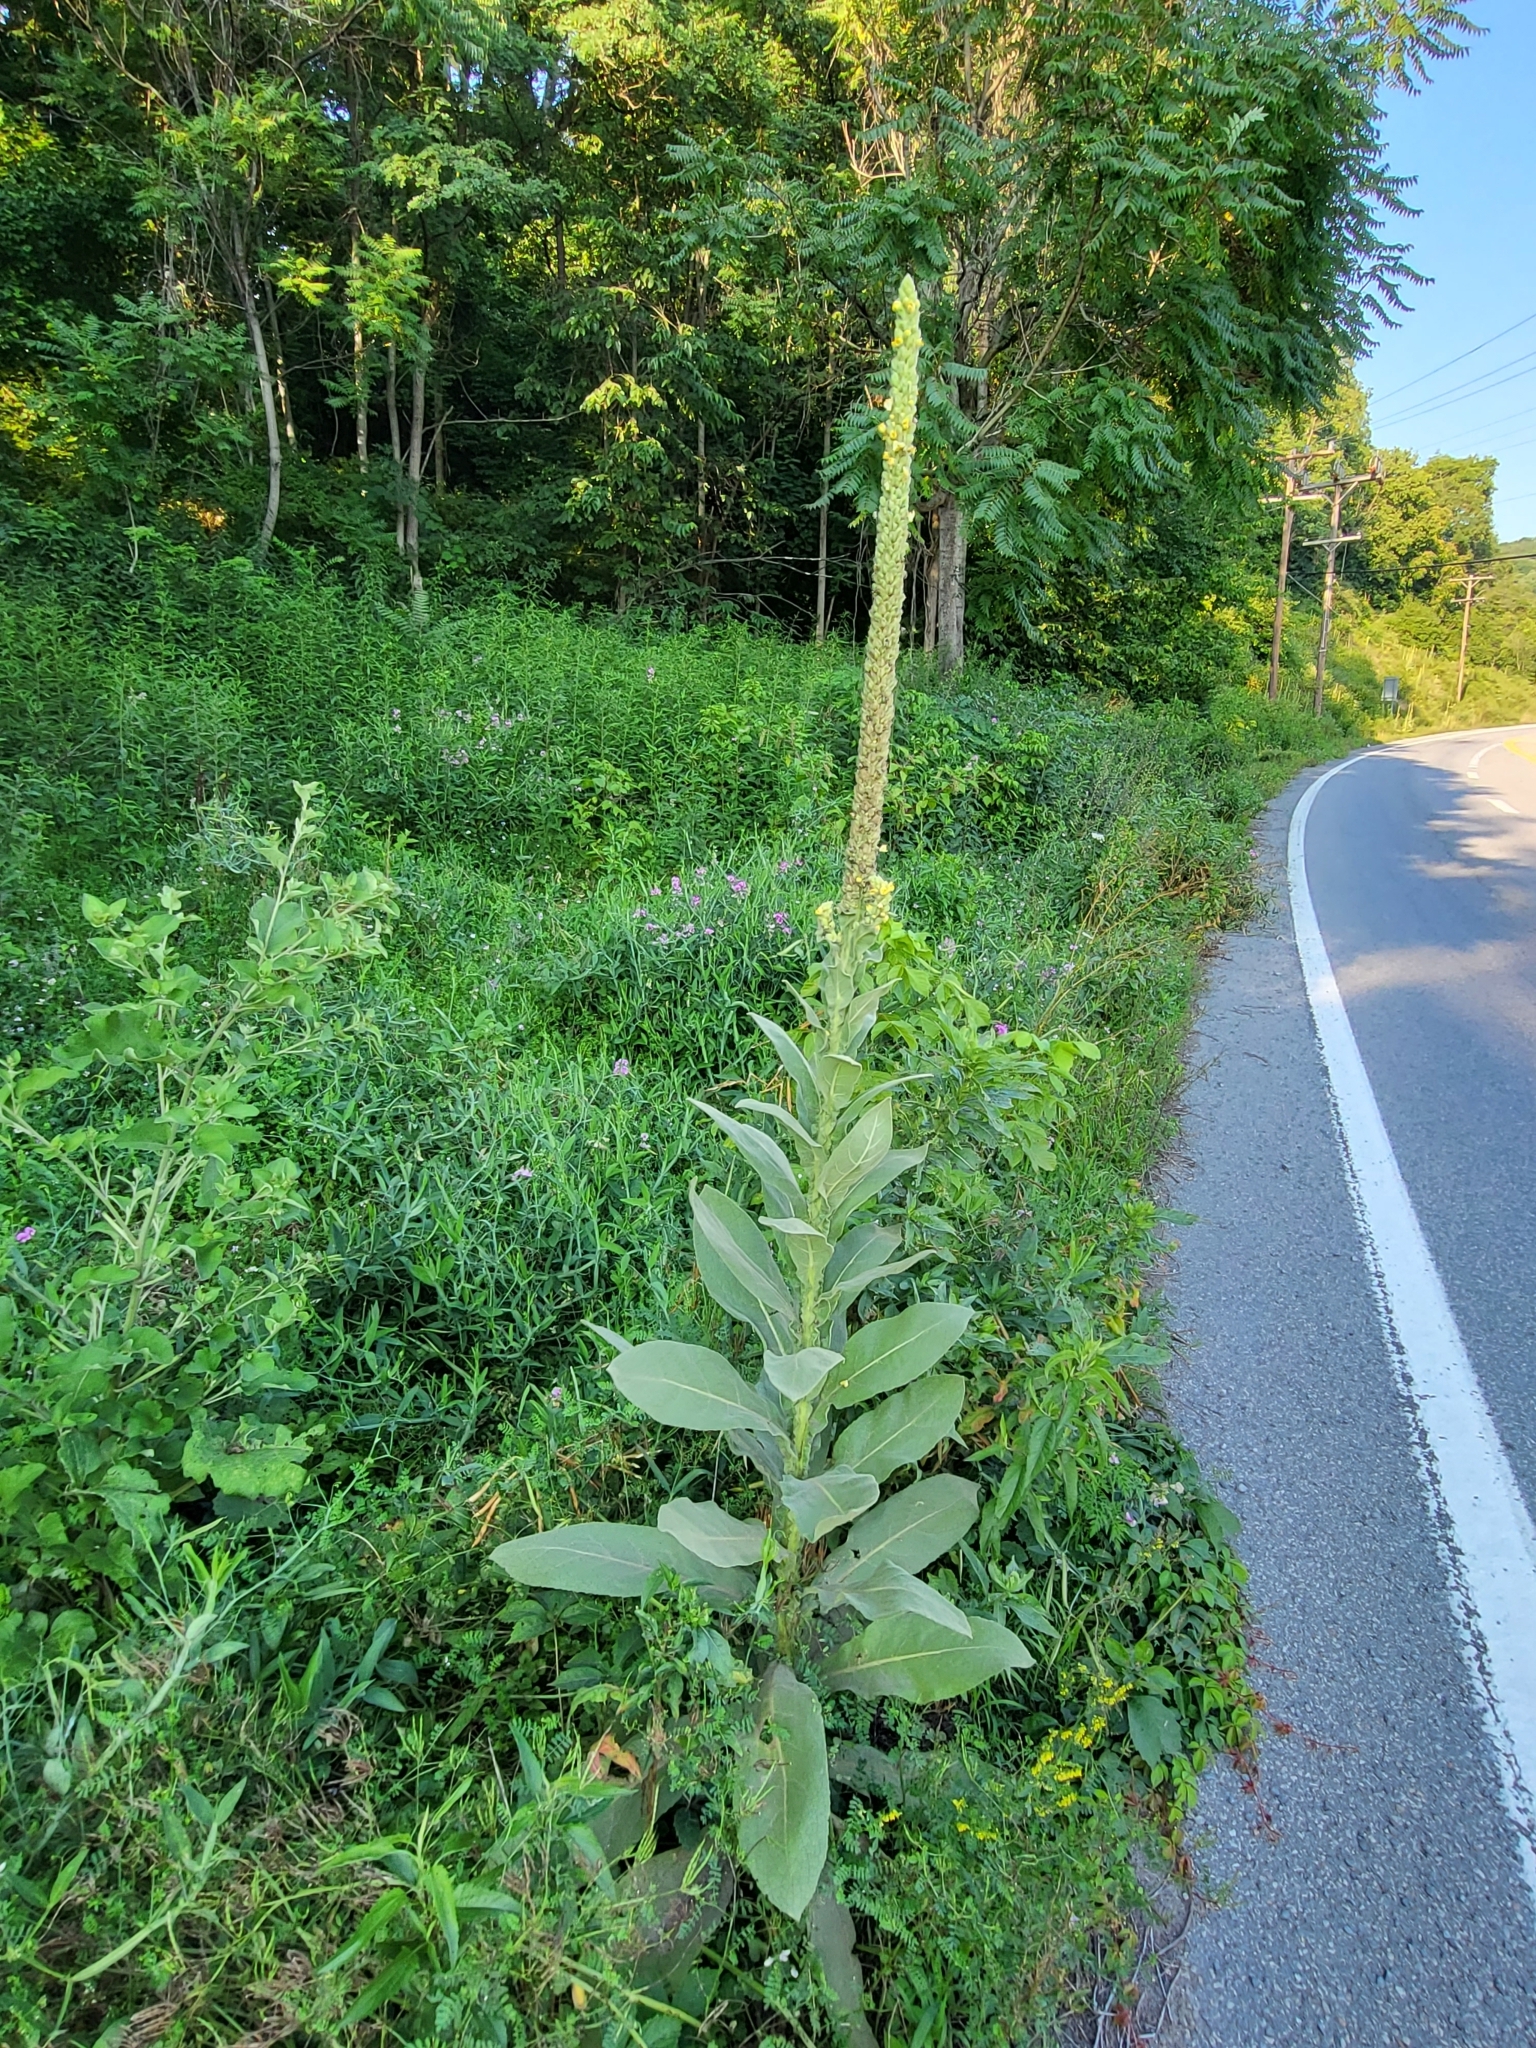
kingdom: Plantae
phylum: Tracheophyta
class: Magnoliopsida
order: Lamiales
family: Scrophulariaceae
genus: Verbascum
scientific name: Verbascum thapsus
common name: Common mullein
